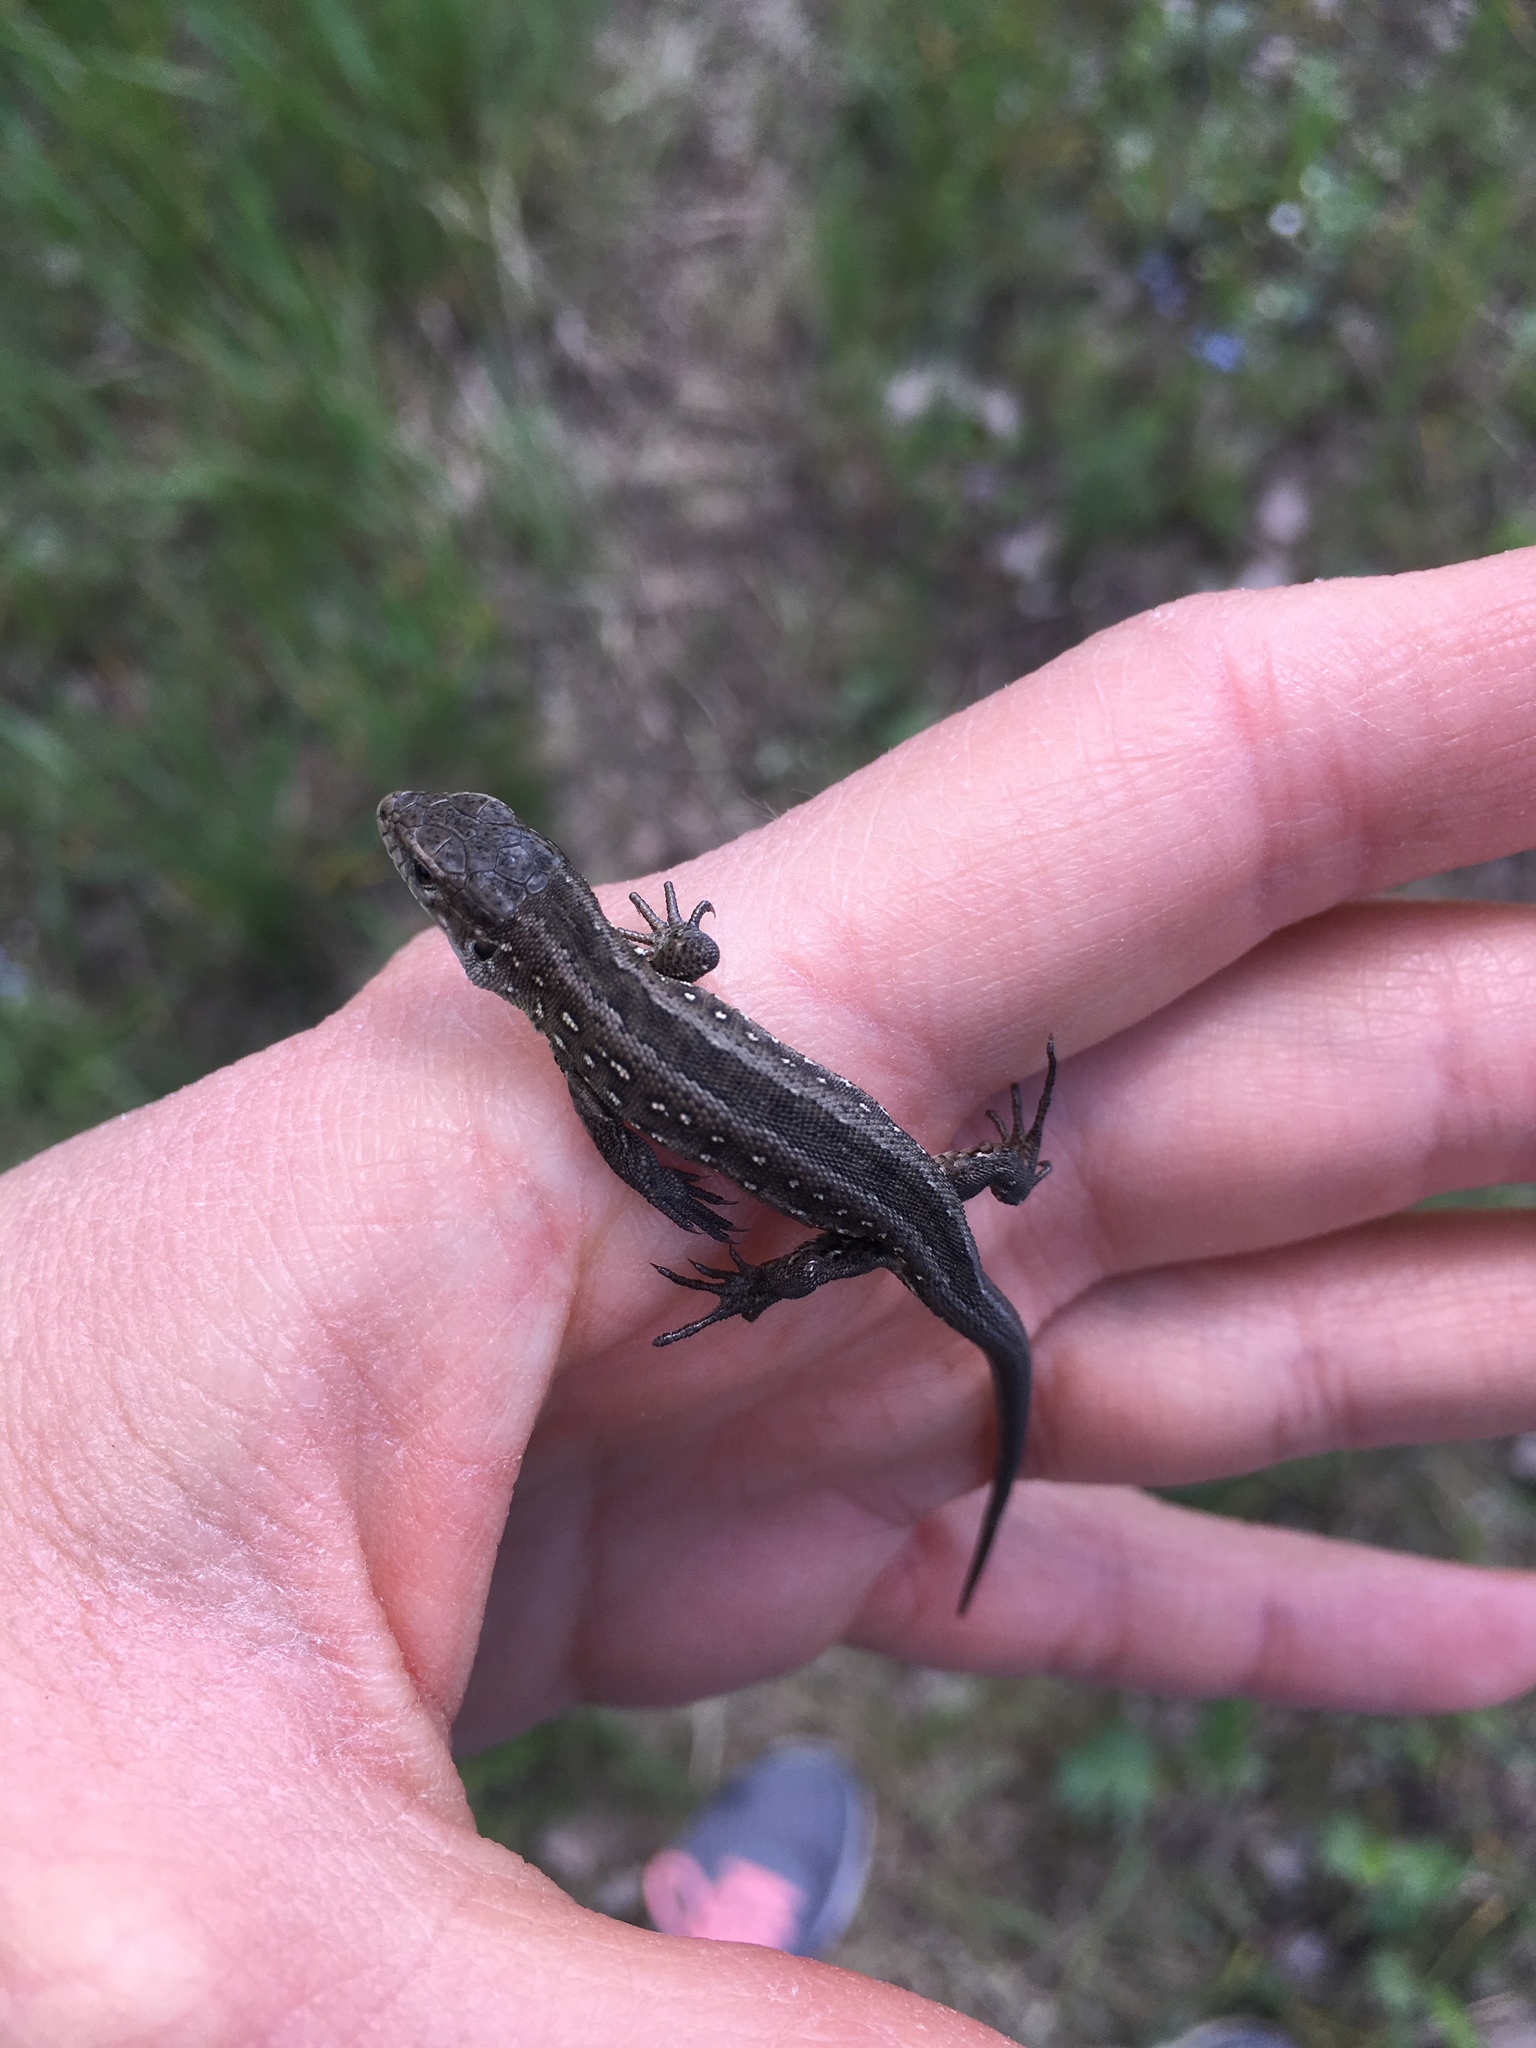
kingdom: Animalia
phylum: Chordata
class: Squamata
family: Lacertidae
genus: Lacerta
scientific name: Lacerta agilis
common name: Sand lizard
